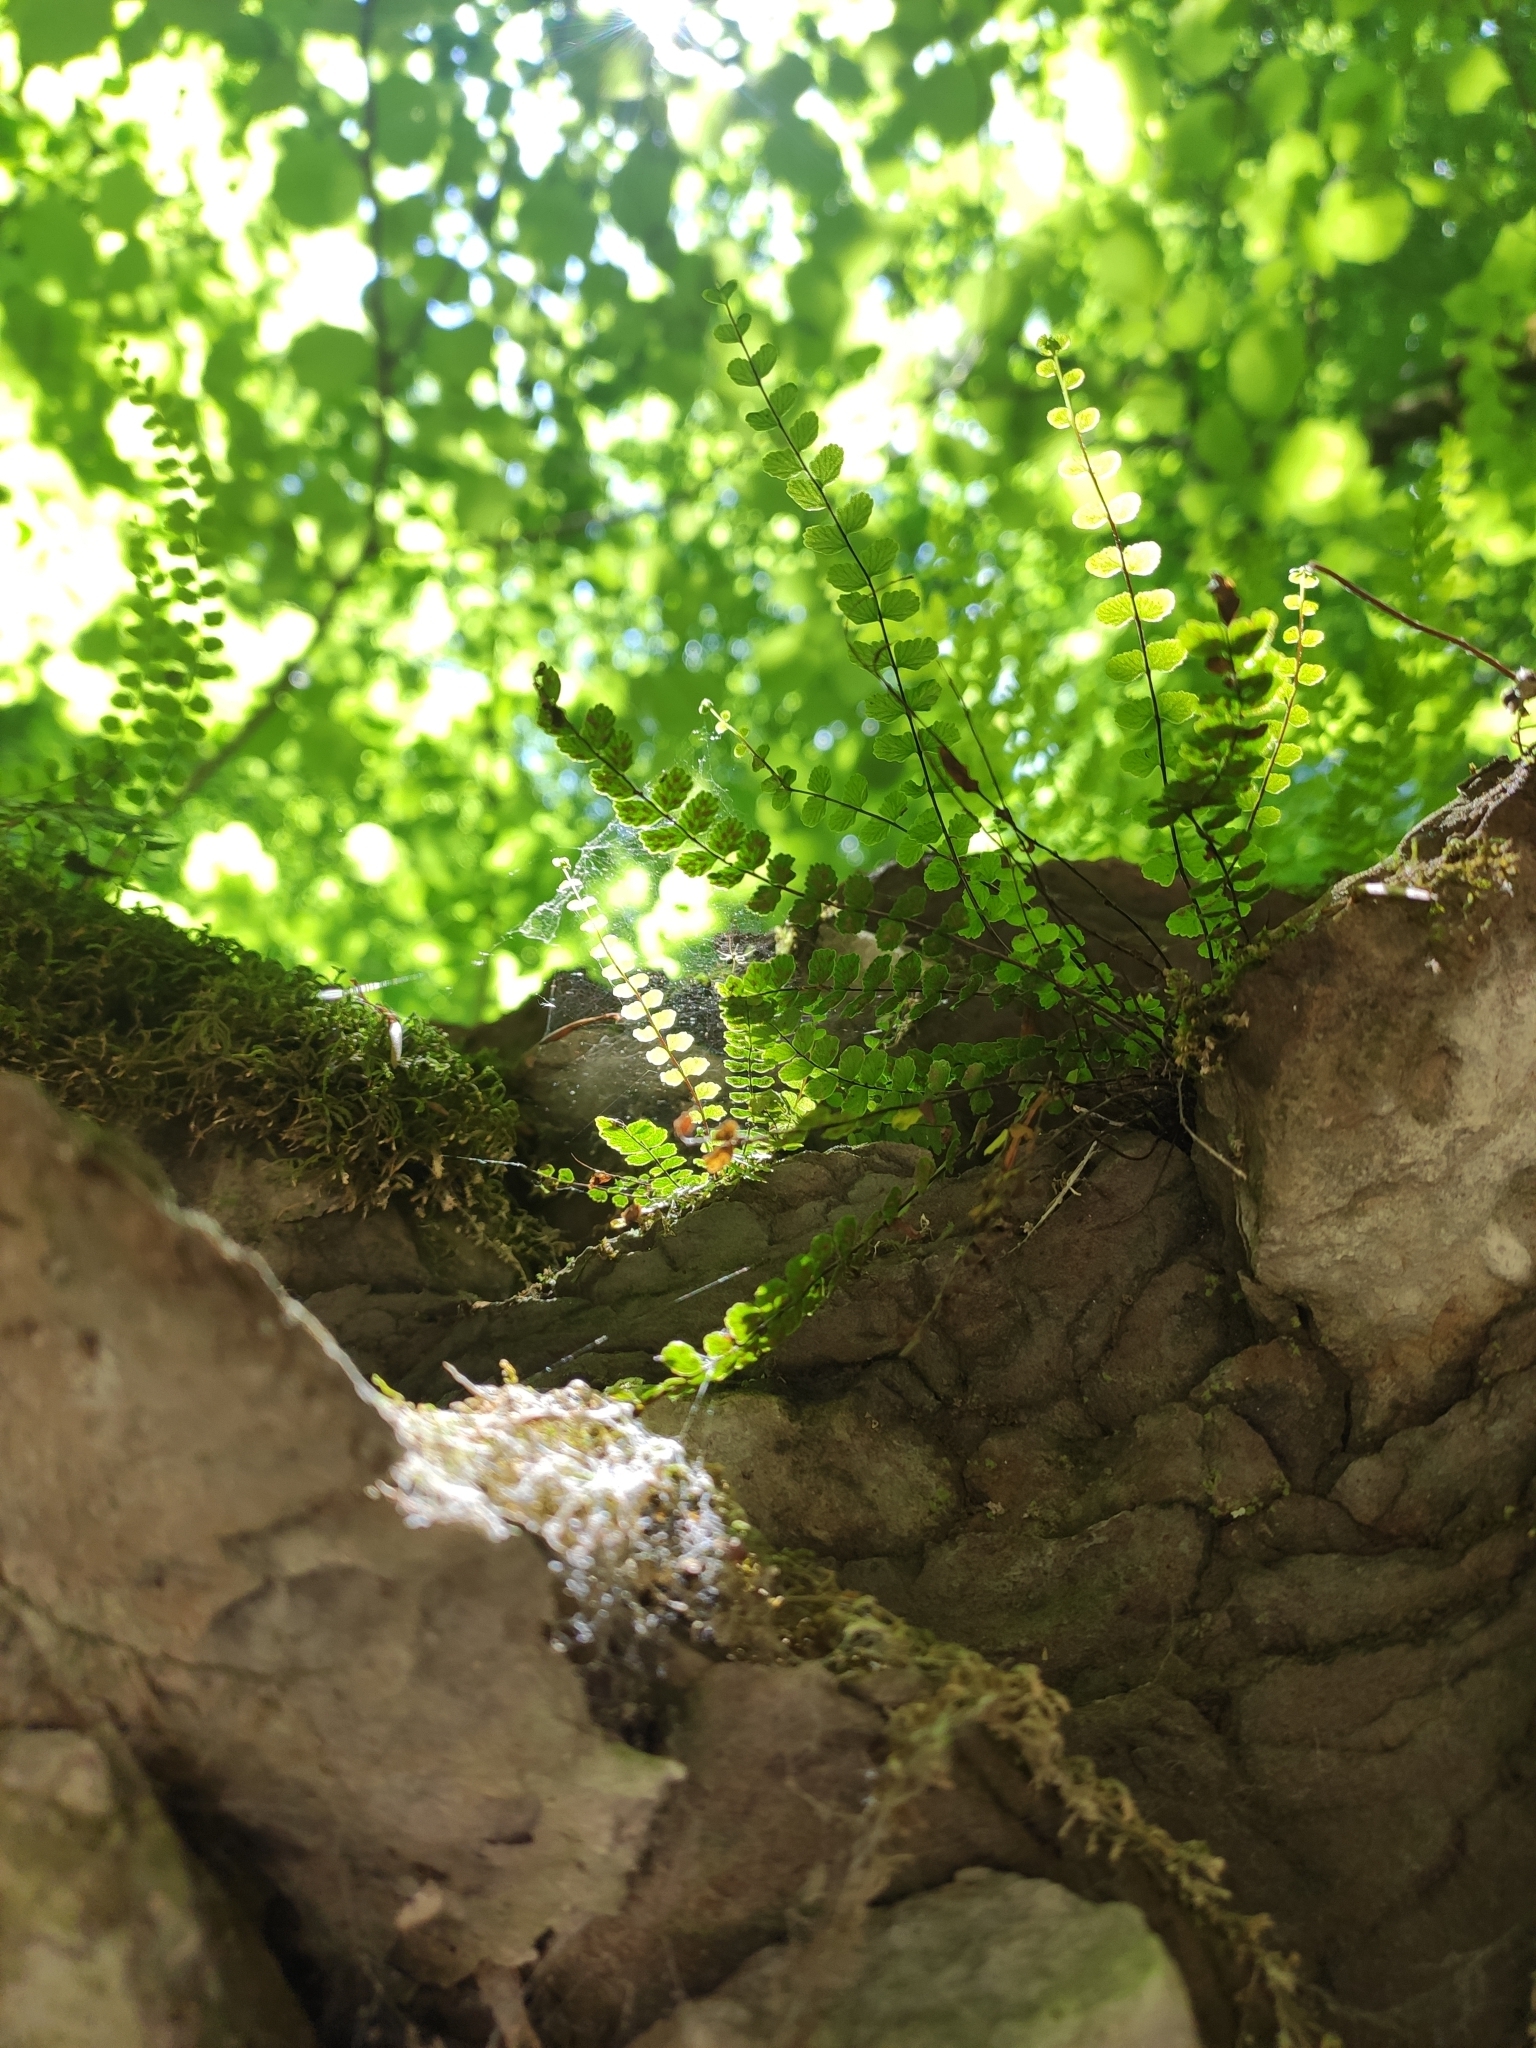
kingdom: Plantae
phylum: Tracheophyta
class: Polypodiopsida
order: Polypodiales
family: Aspleniaceae
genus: Asplenium
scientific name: Asplenium trichomanes
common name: Maidenhair spleenwort
